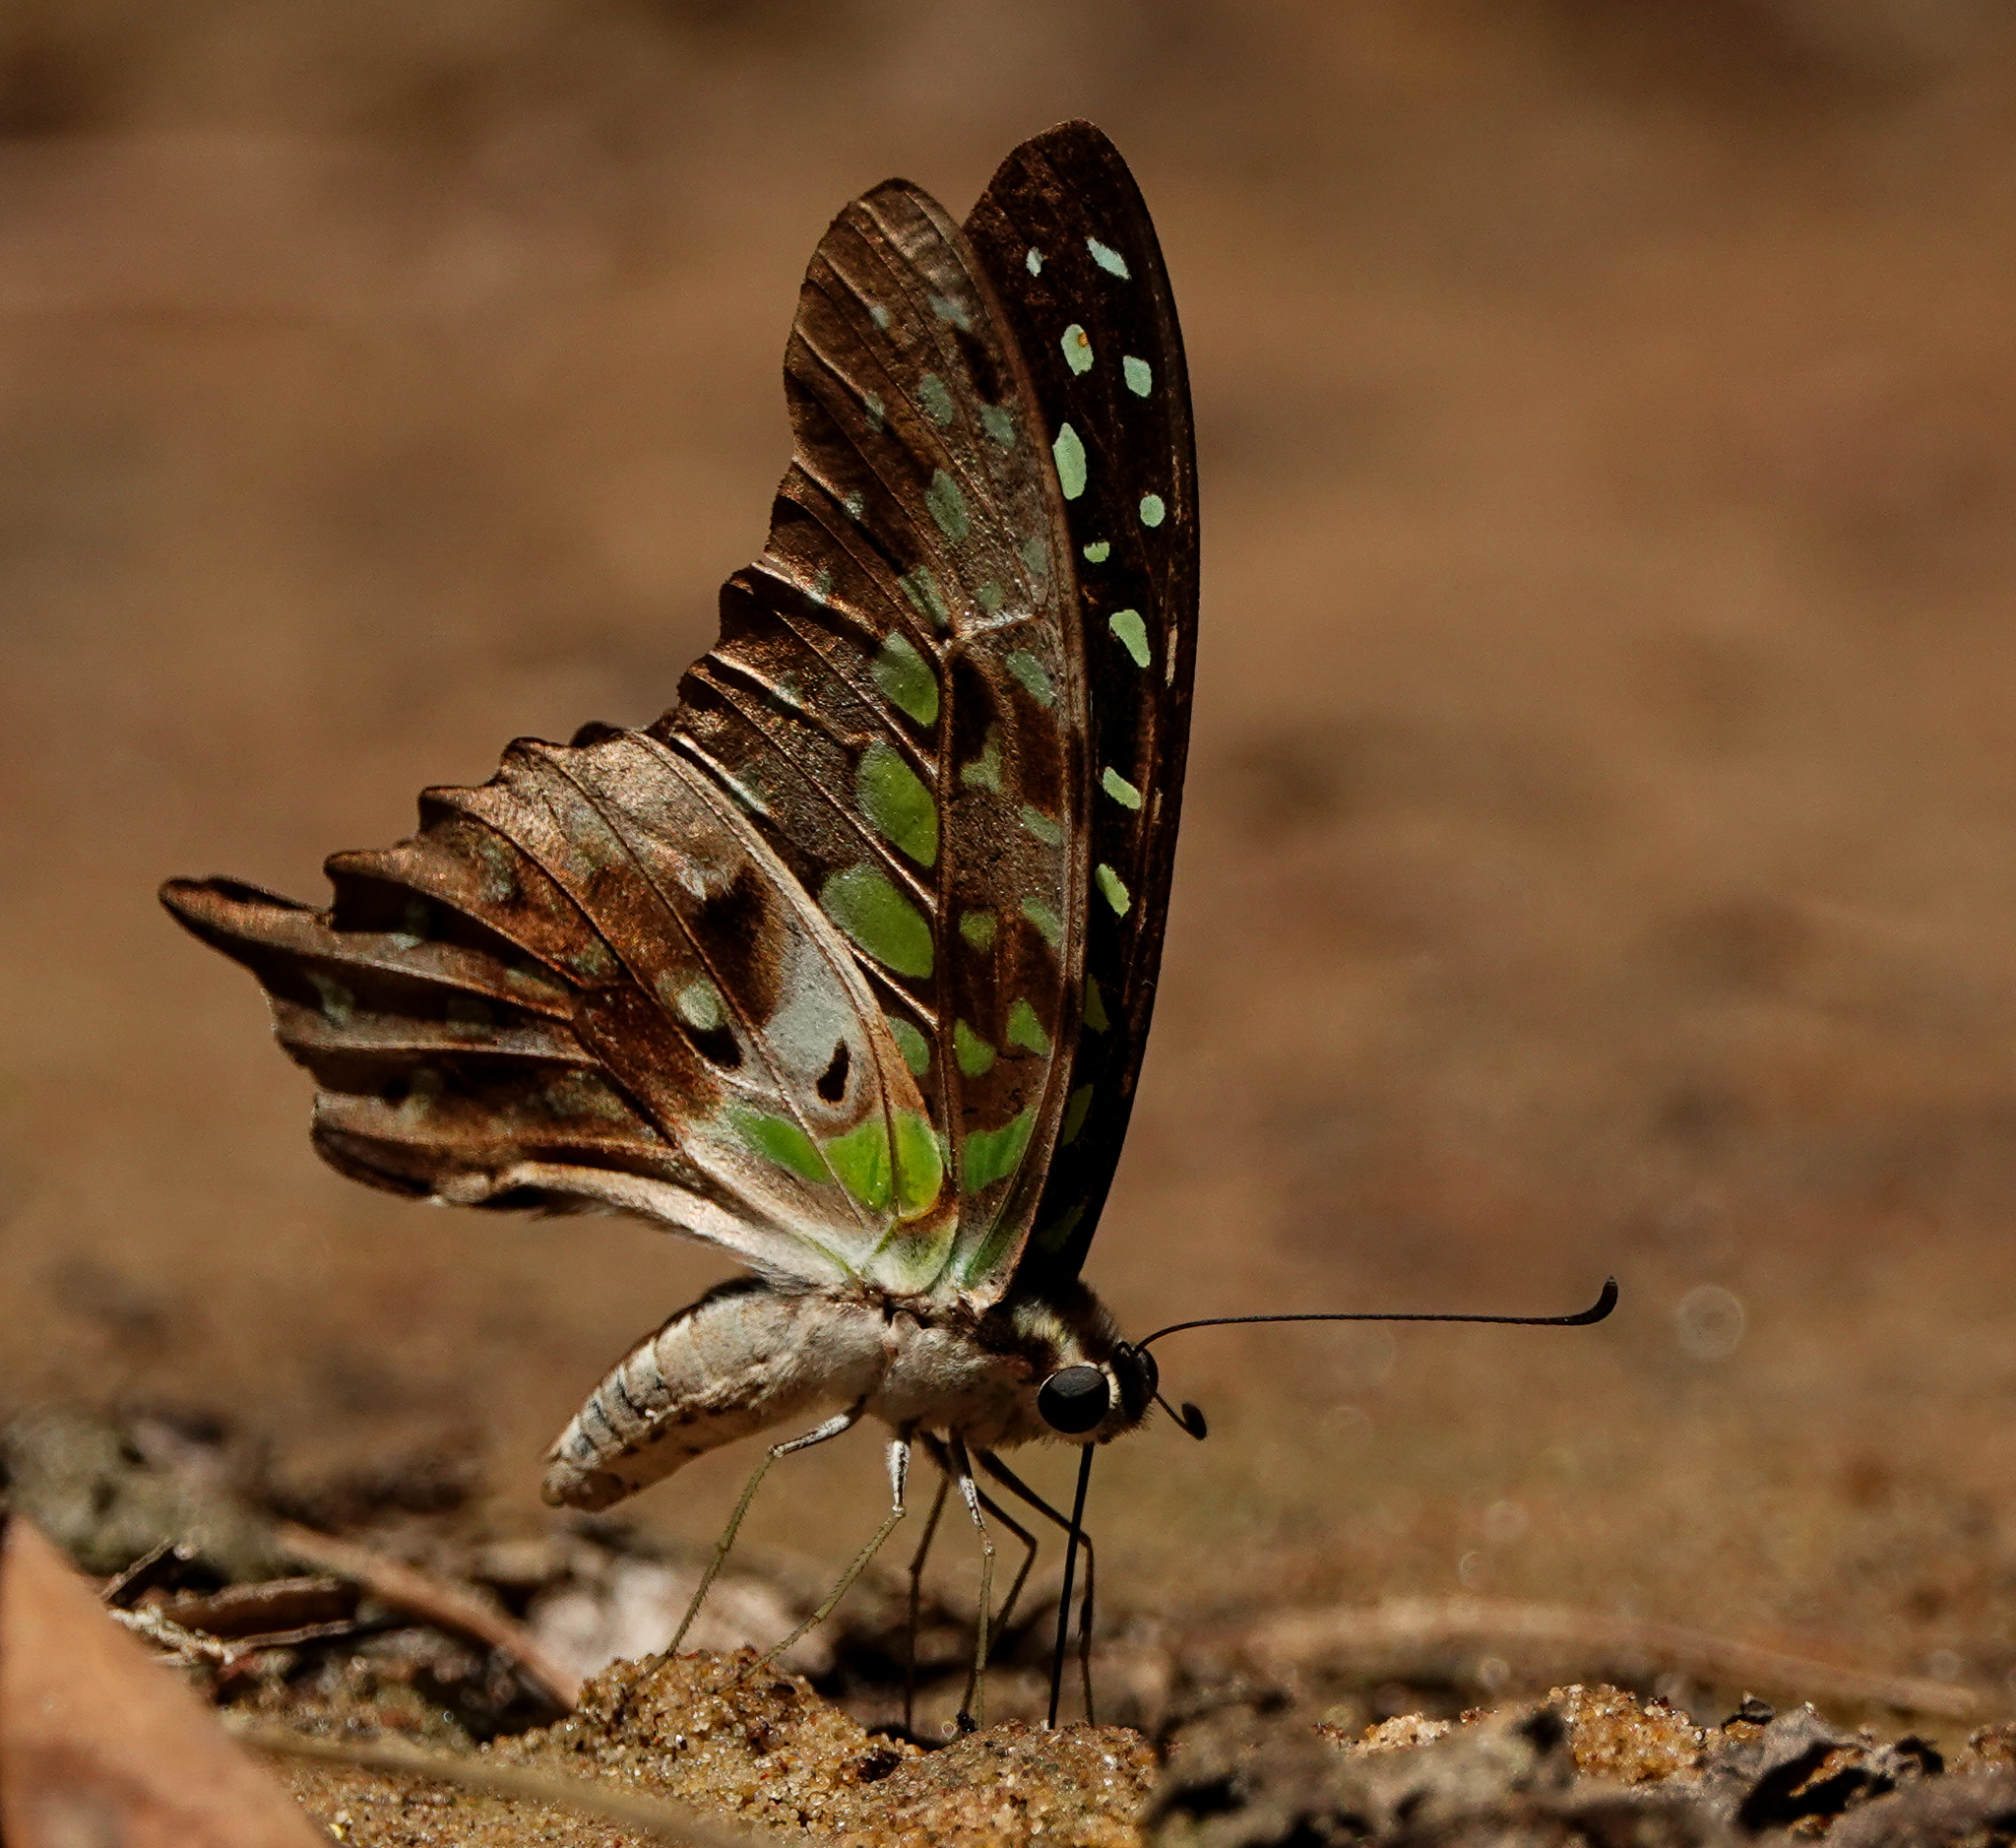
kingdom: Animalia
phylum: Arthropoda
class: Insecta
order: Lepidoptera
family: Papilionidae
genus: Graphium
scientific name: Graphium agamemnon
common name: Tailed jay
